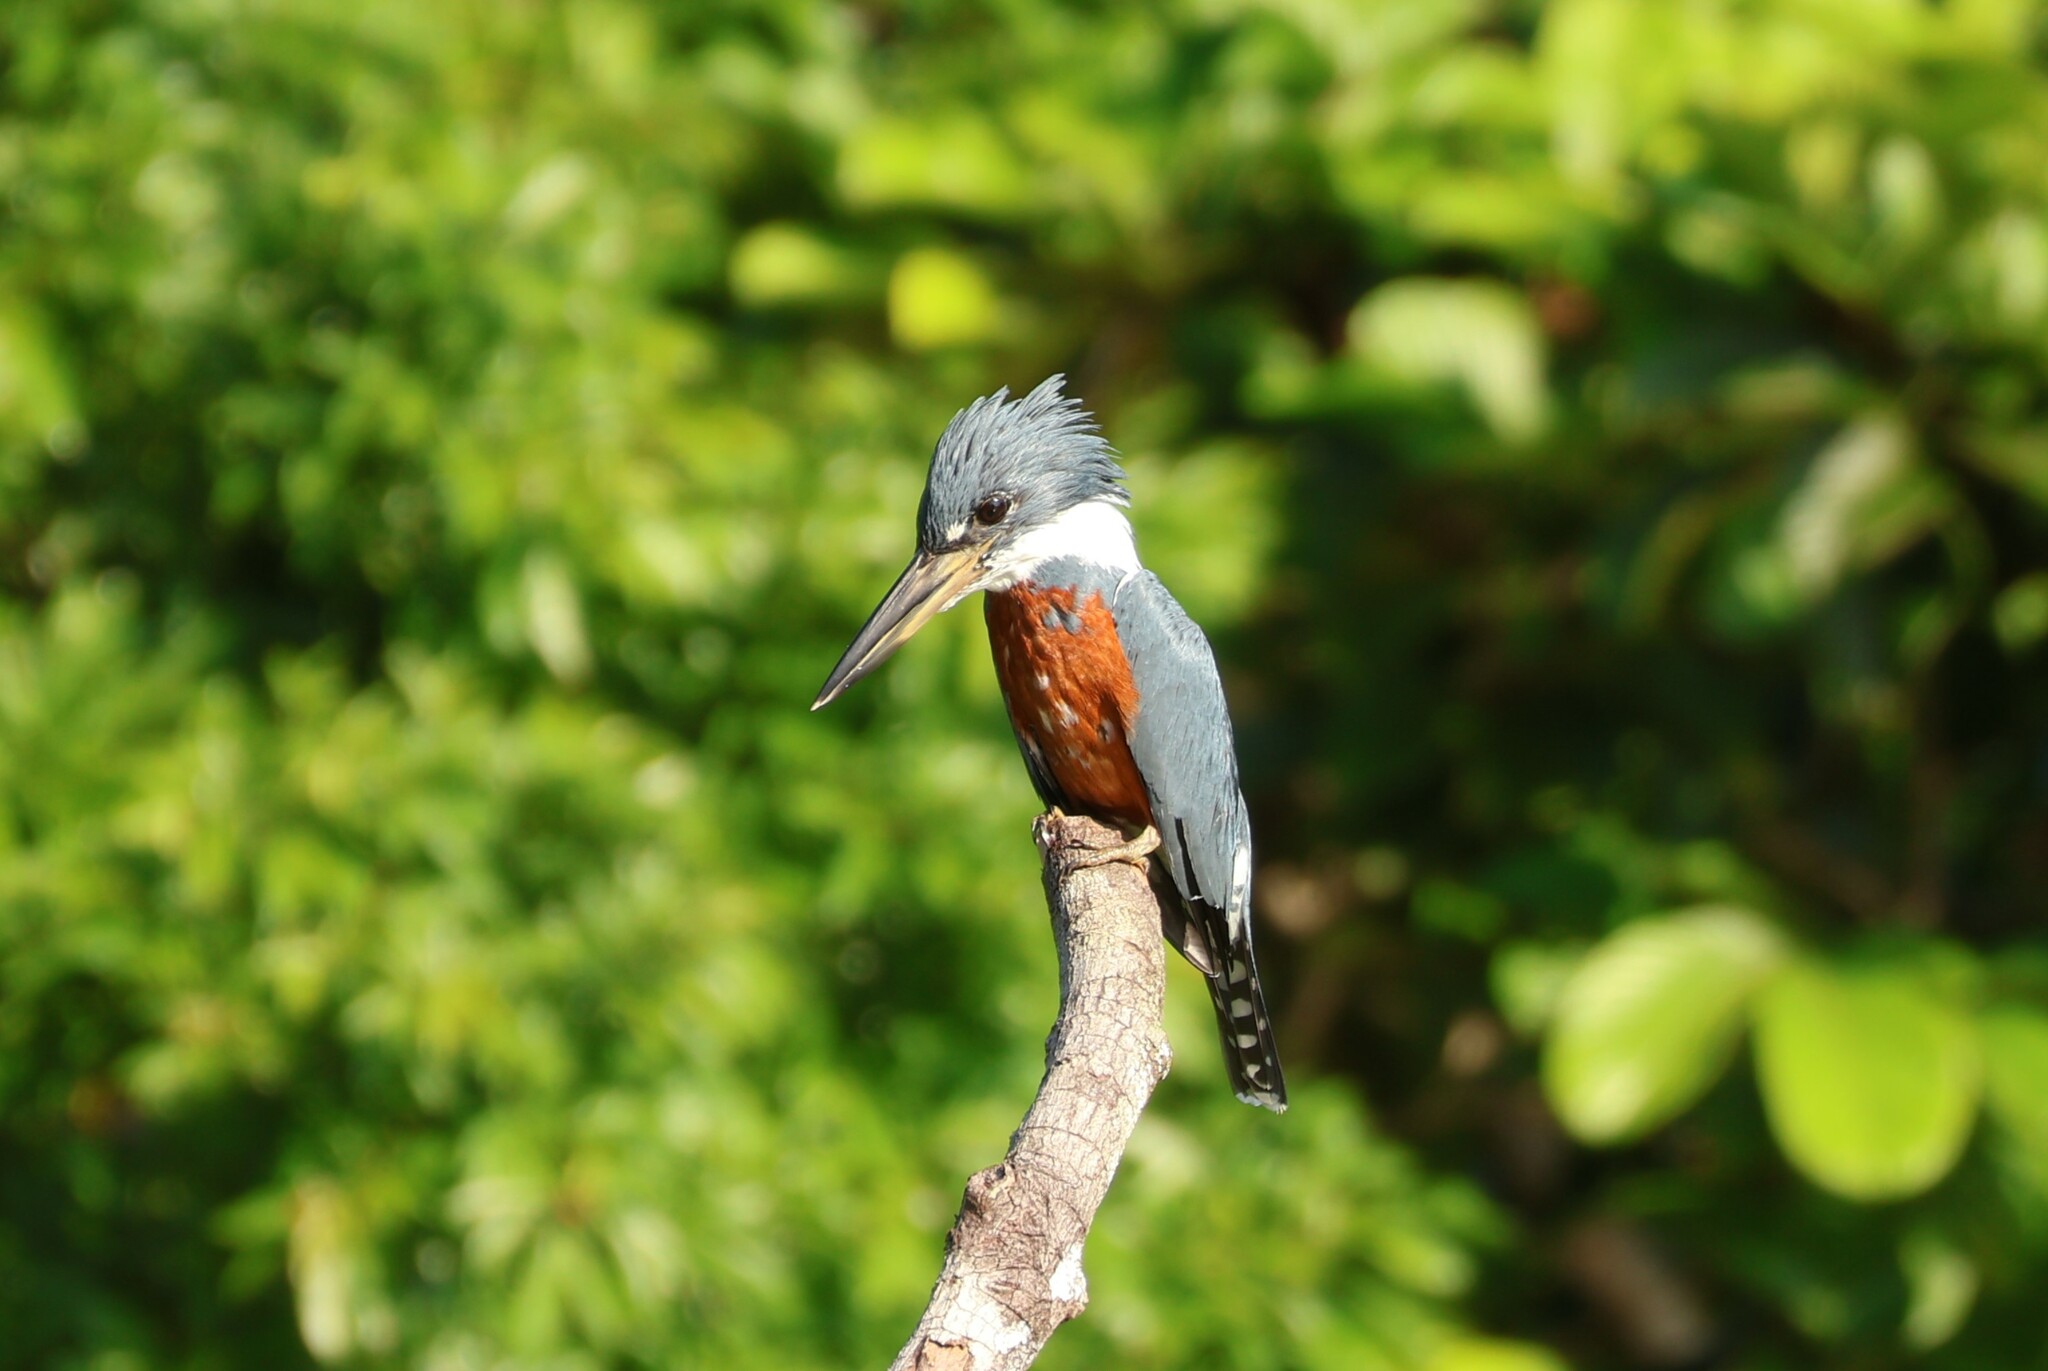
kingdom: Animalia
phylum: Chordata
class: Aves
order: Coraciiformes
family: Alcedinidae
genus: Megaceryle
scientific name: Megaceryle torquata
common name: Ringed kingfisher
